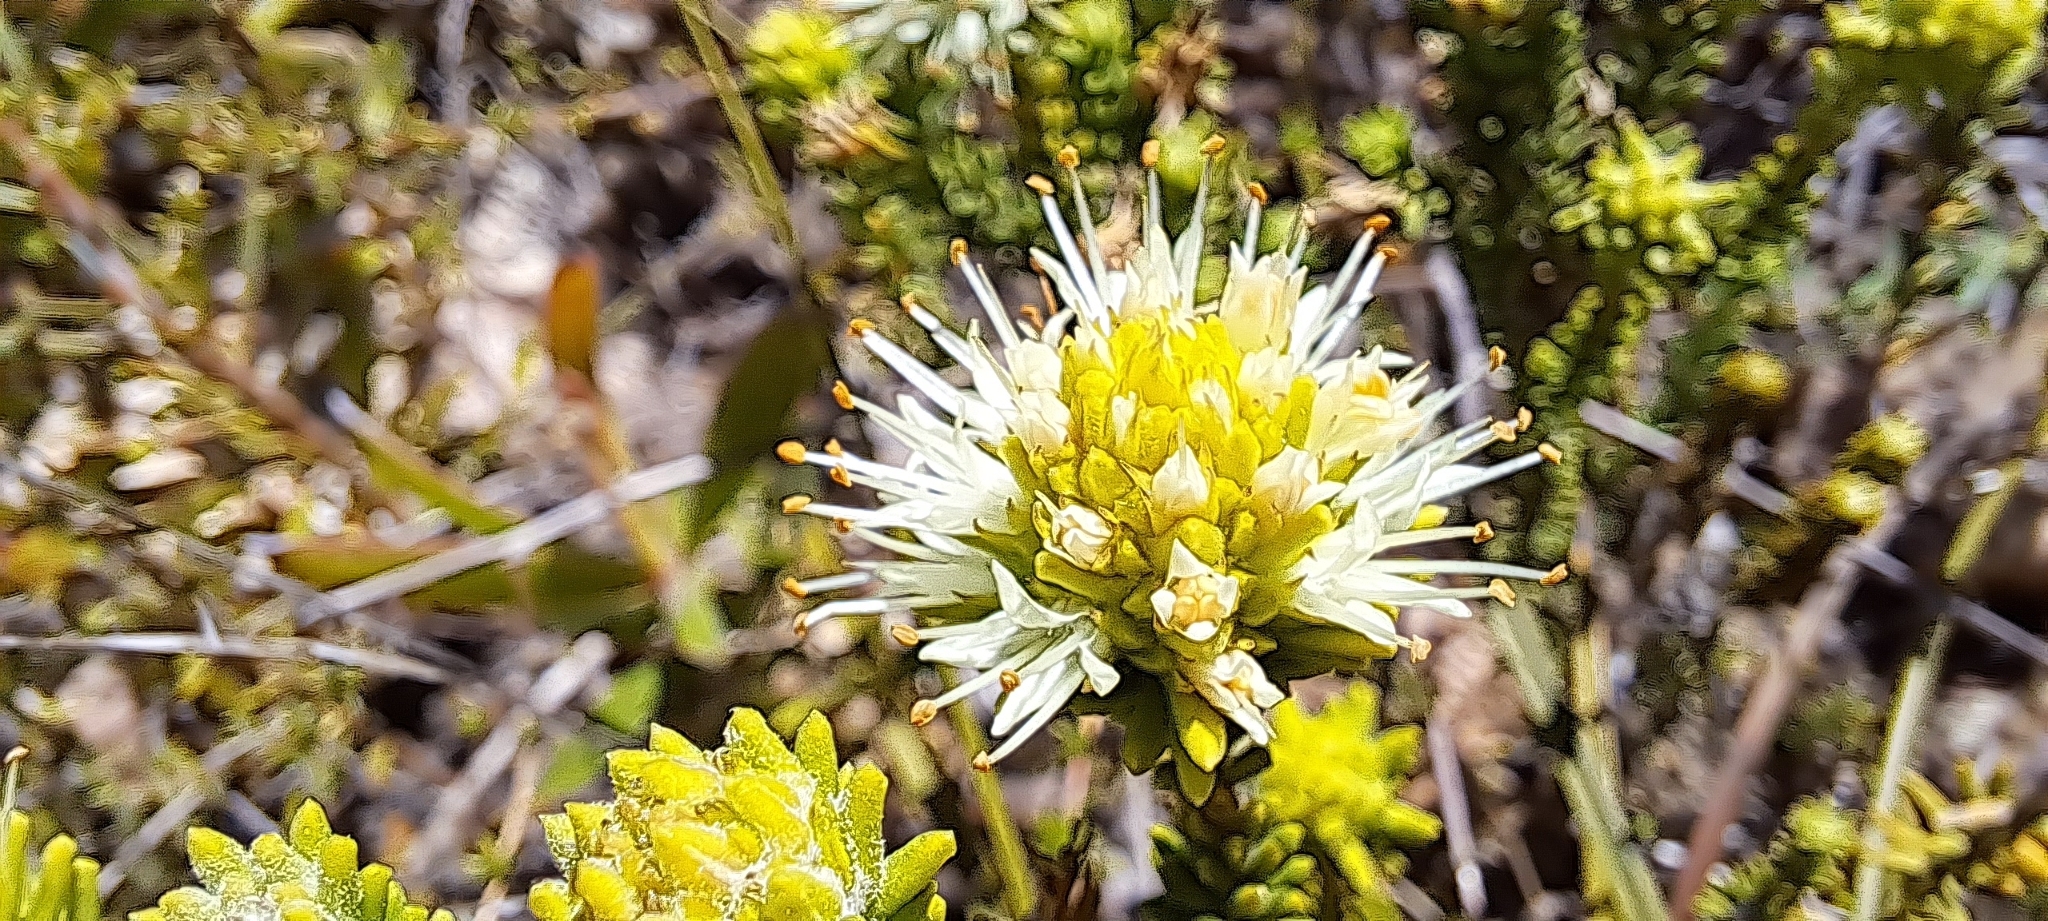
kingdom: Plantae
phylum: Tracheophyta
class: Magnoliopsida
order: Lamiales
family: Stilbaceae
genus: Campylostachys
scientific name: Campylostachys cernua
